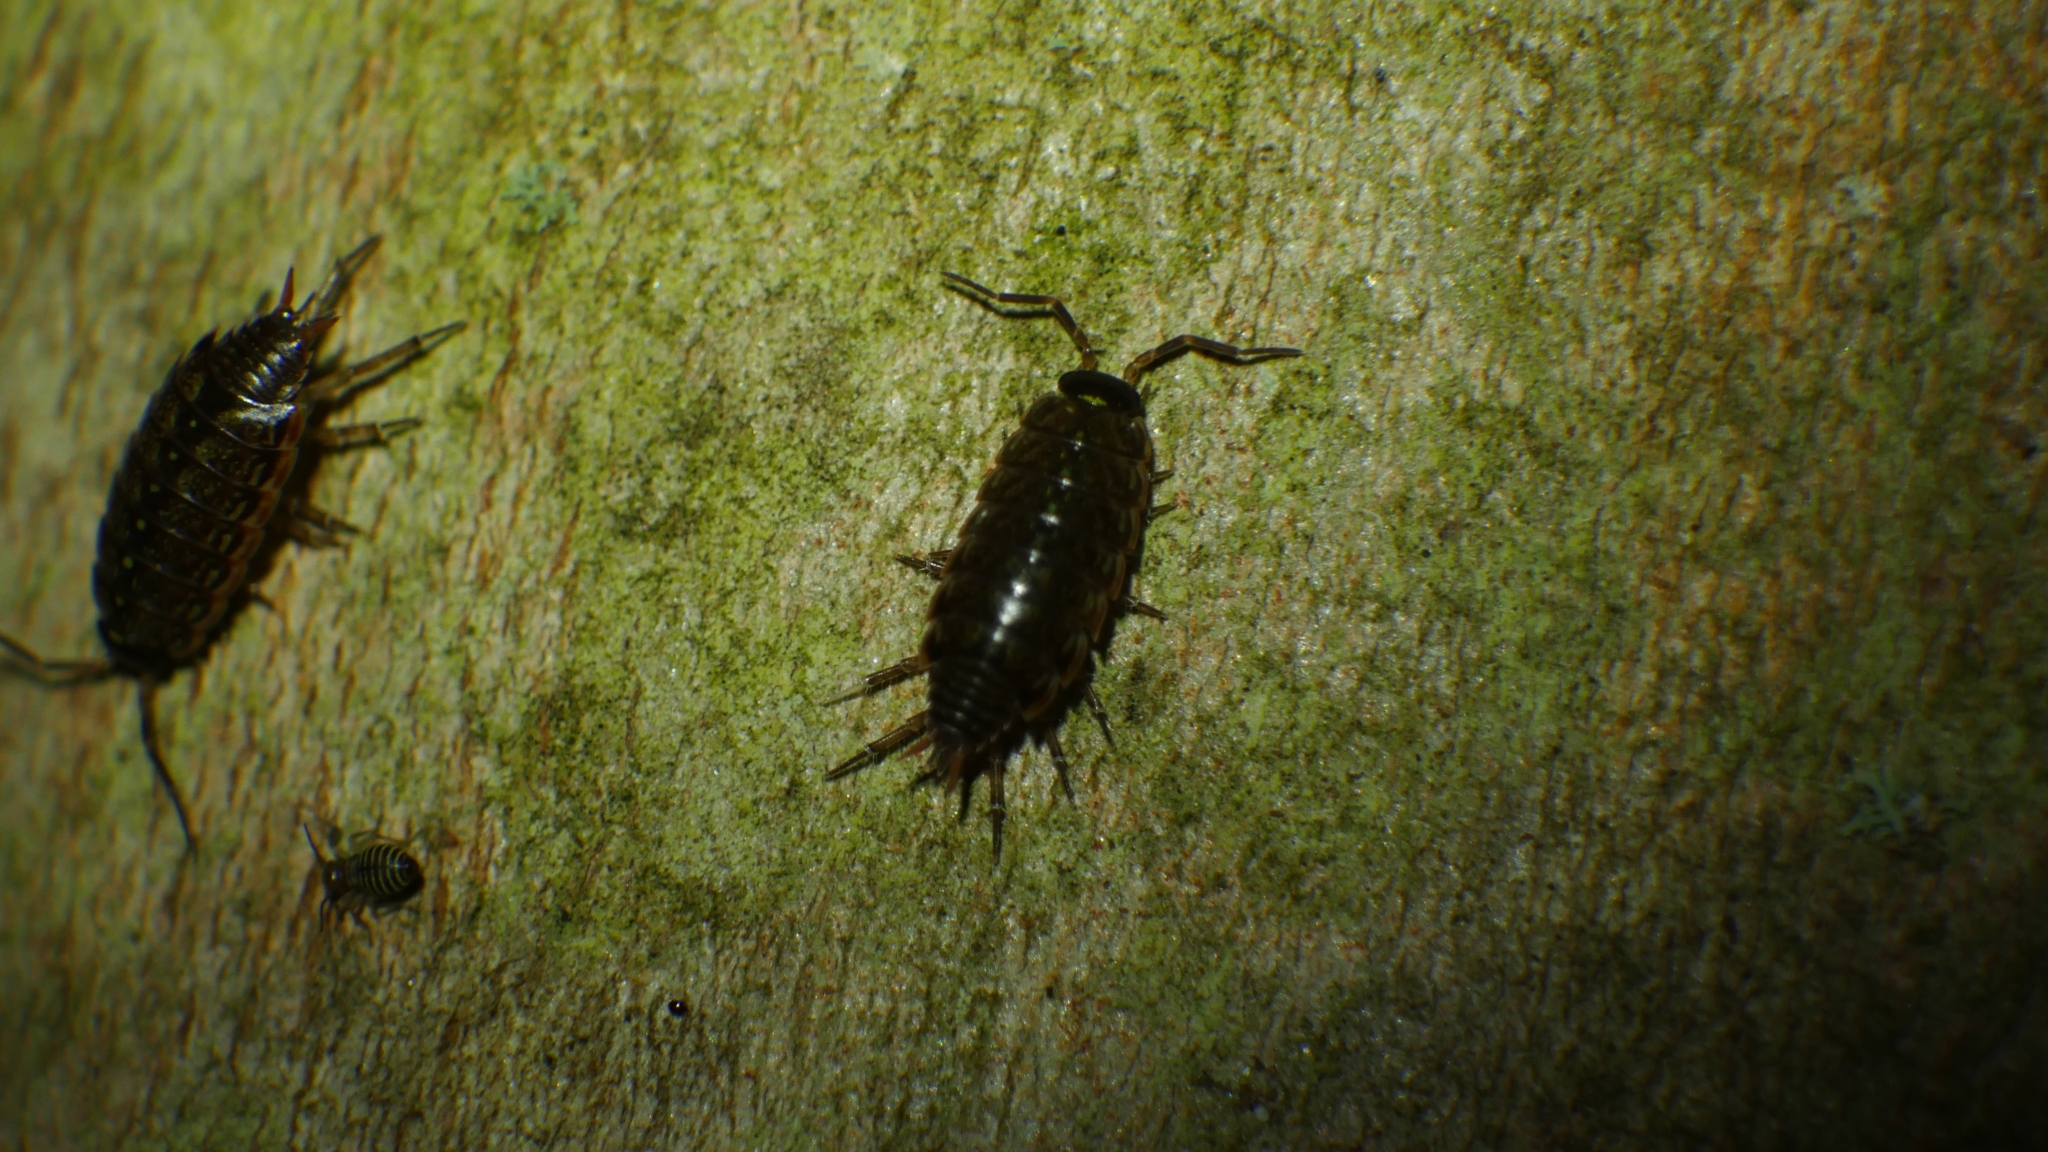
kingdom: Animalia
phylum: Arthropoda
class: Malacostraca
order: Isopoda
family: Philosciidae
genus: Philoscia
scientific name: Philoscia muscorum
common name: Common striped woodlouse
